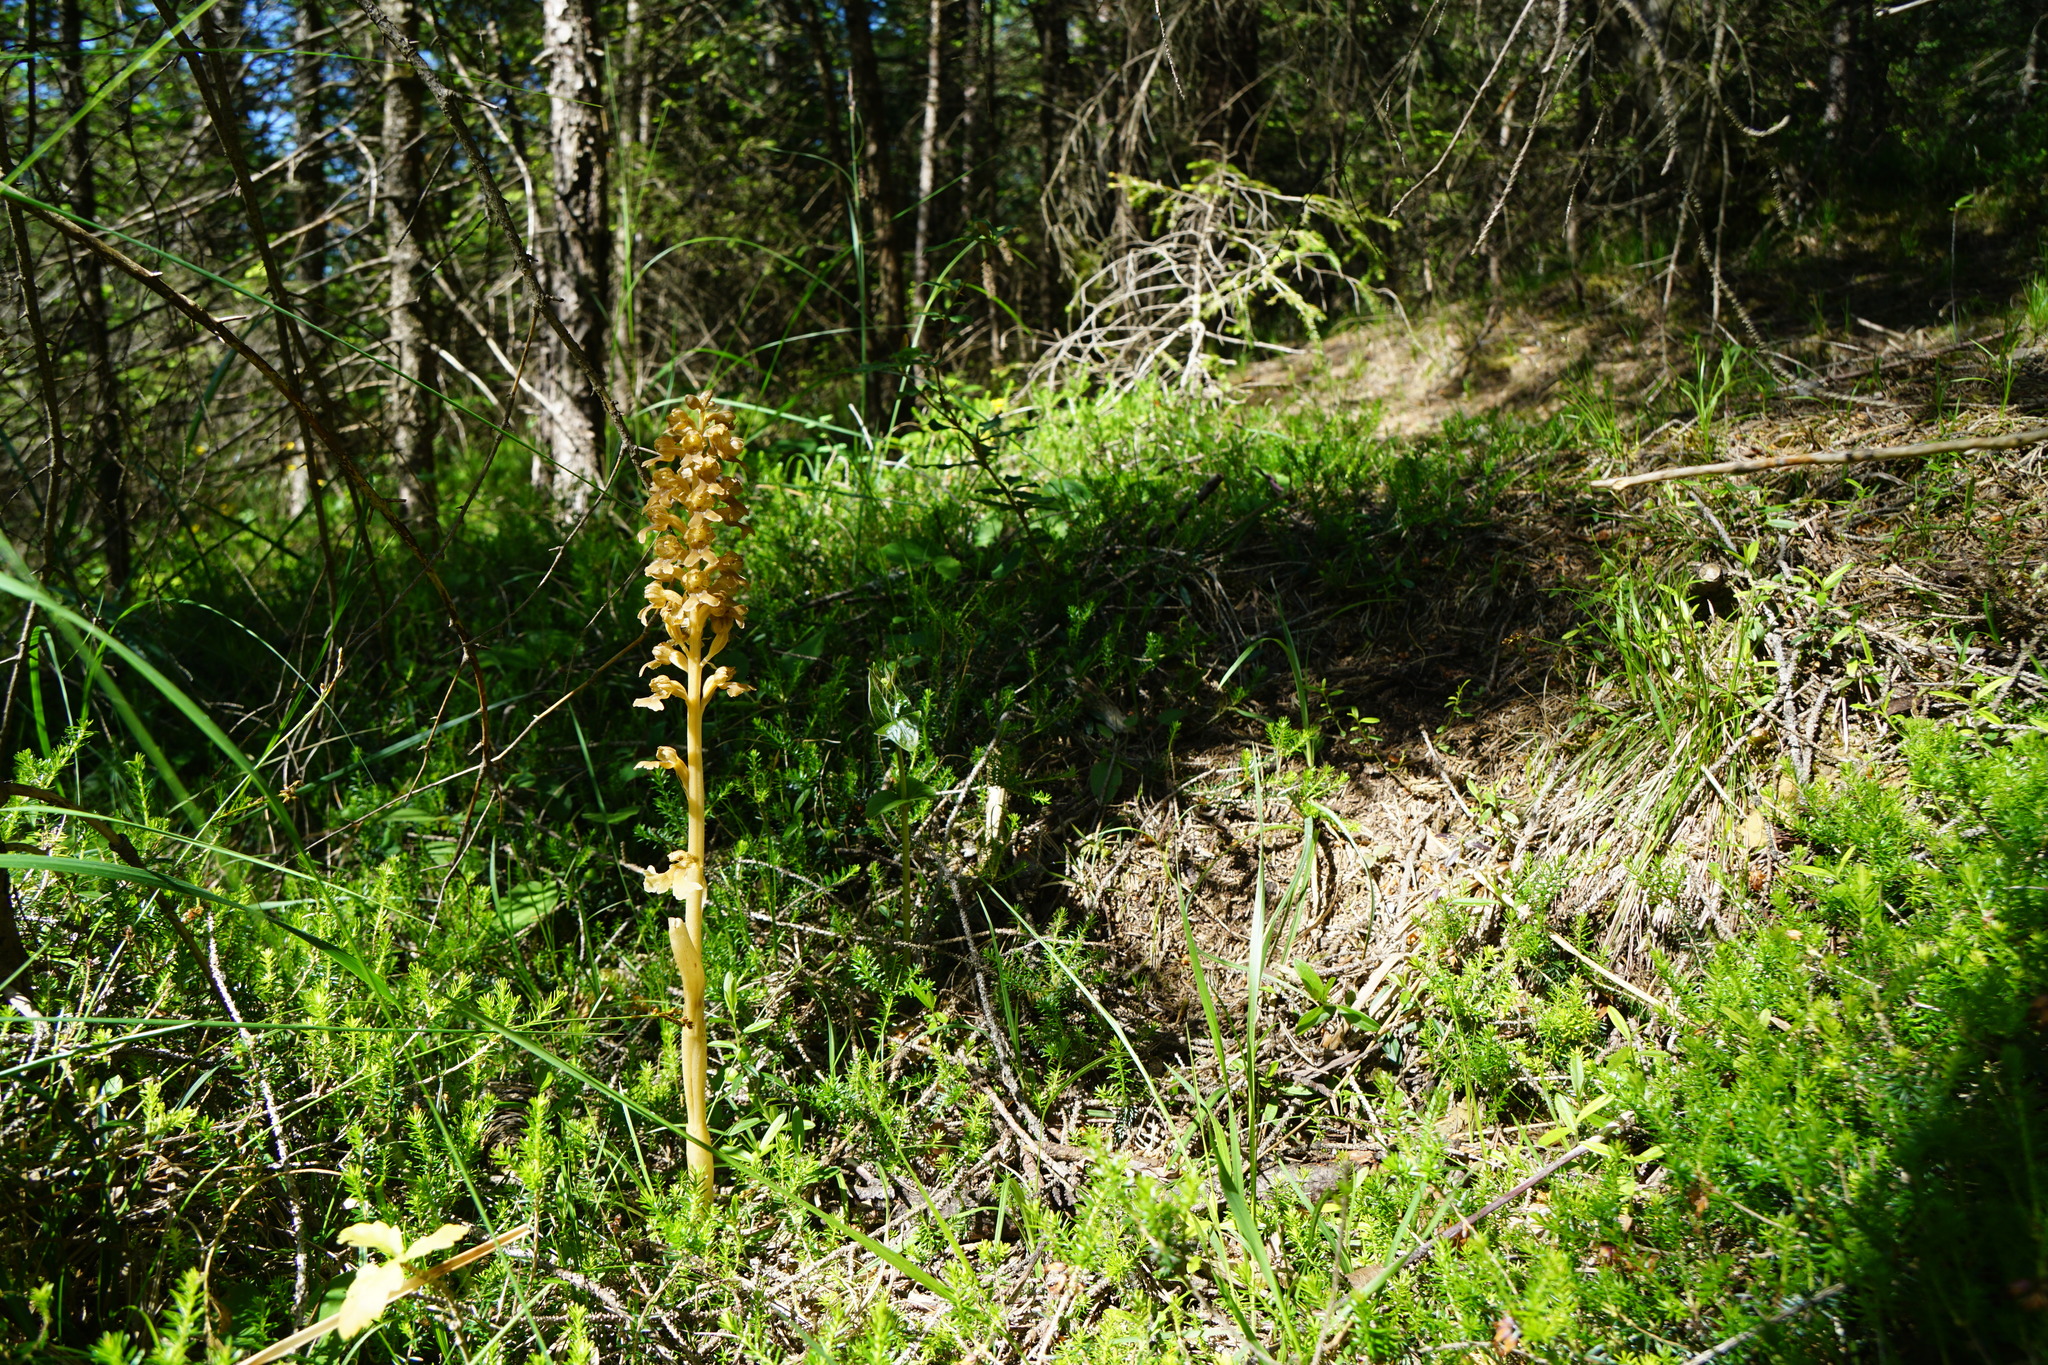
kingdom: Plantae
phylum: Tracheophyta
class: Liliopsida
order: Asparagales
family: Orchidaceae
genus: Neottia
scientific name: Neottia nidus-avis
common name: Bird's-nest orchid
